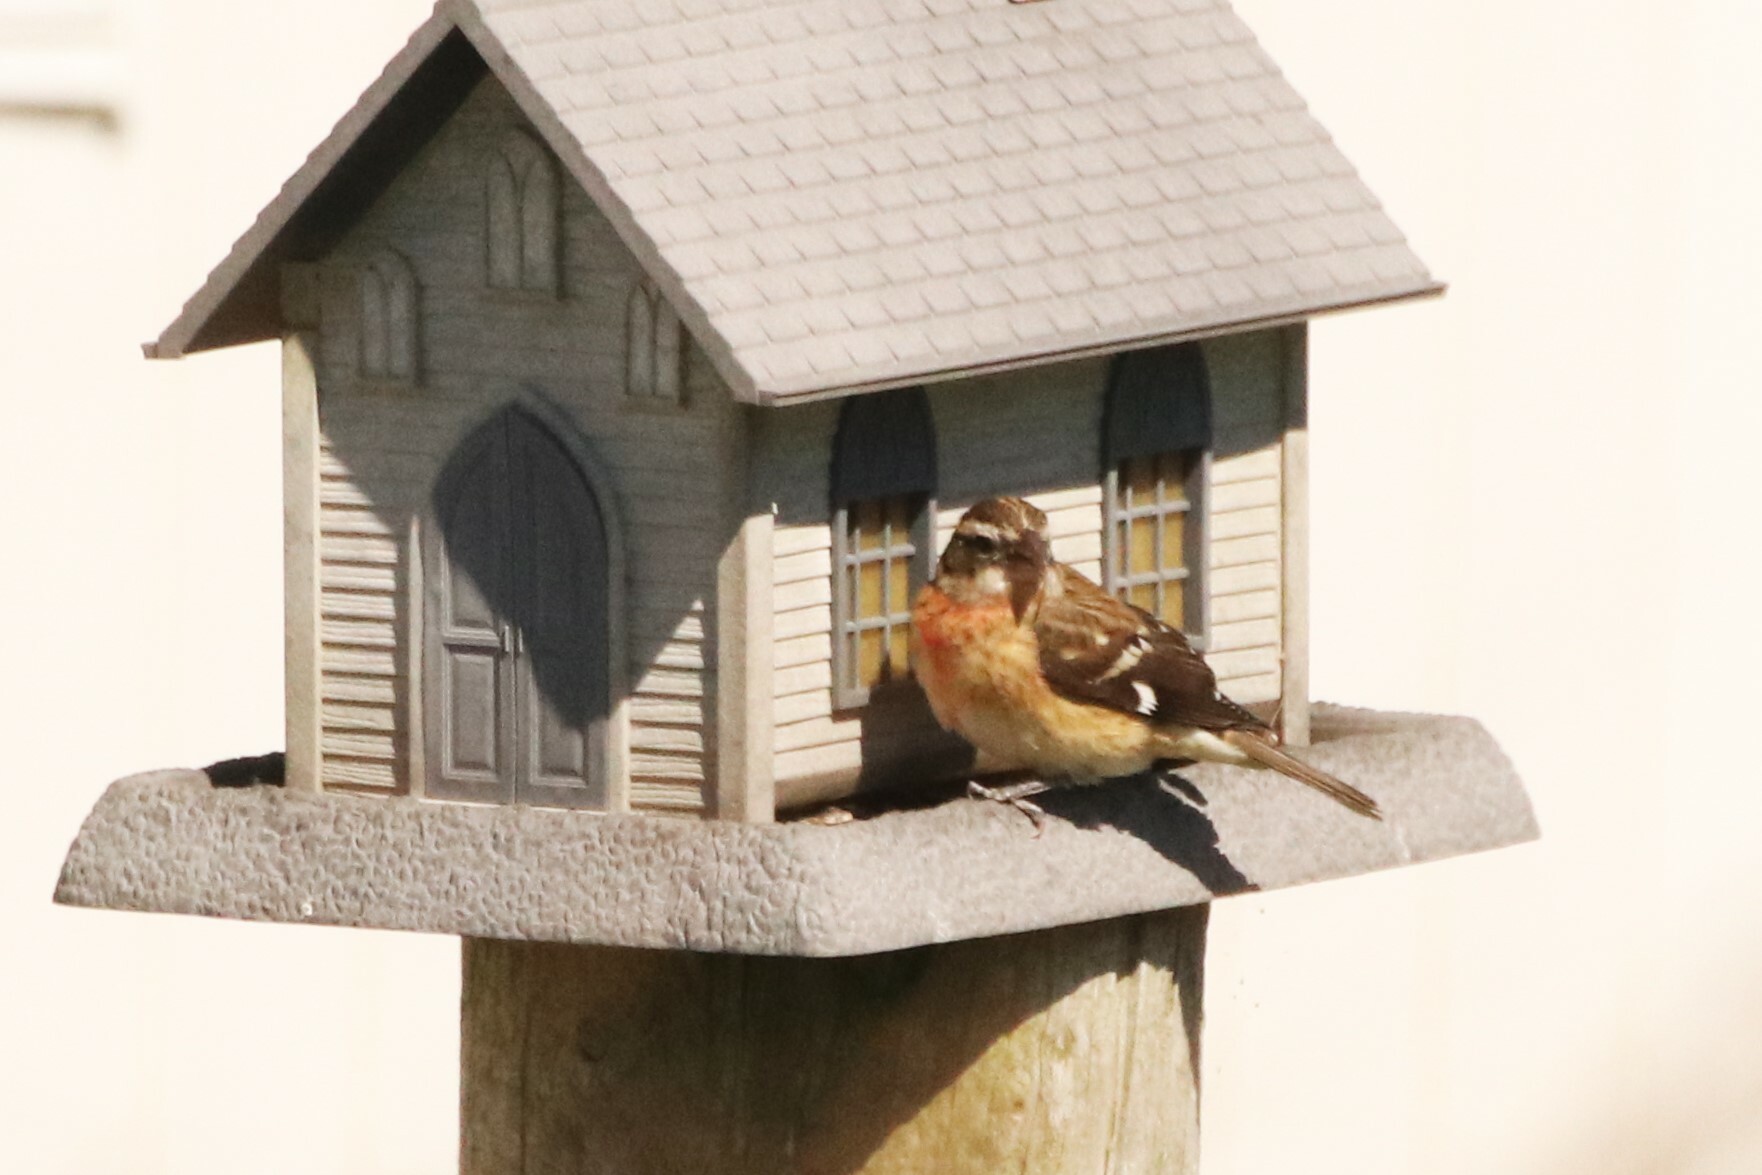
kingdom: Animalia
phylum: Chordata
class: Aves
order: Passeriformes
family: Cardinalidae
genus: Pheucticus
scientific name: Pheucticus ludovicianus
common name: Rose-breasted grosbeak
